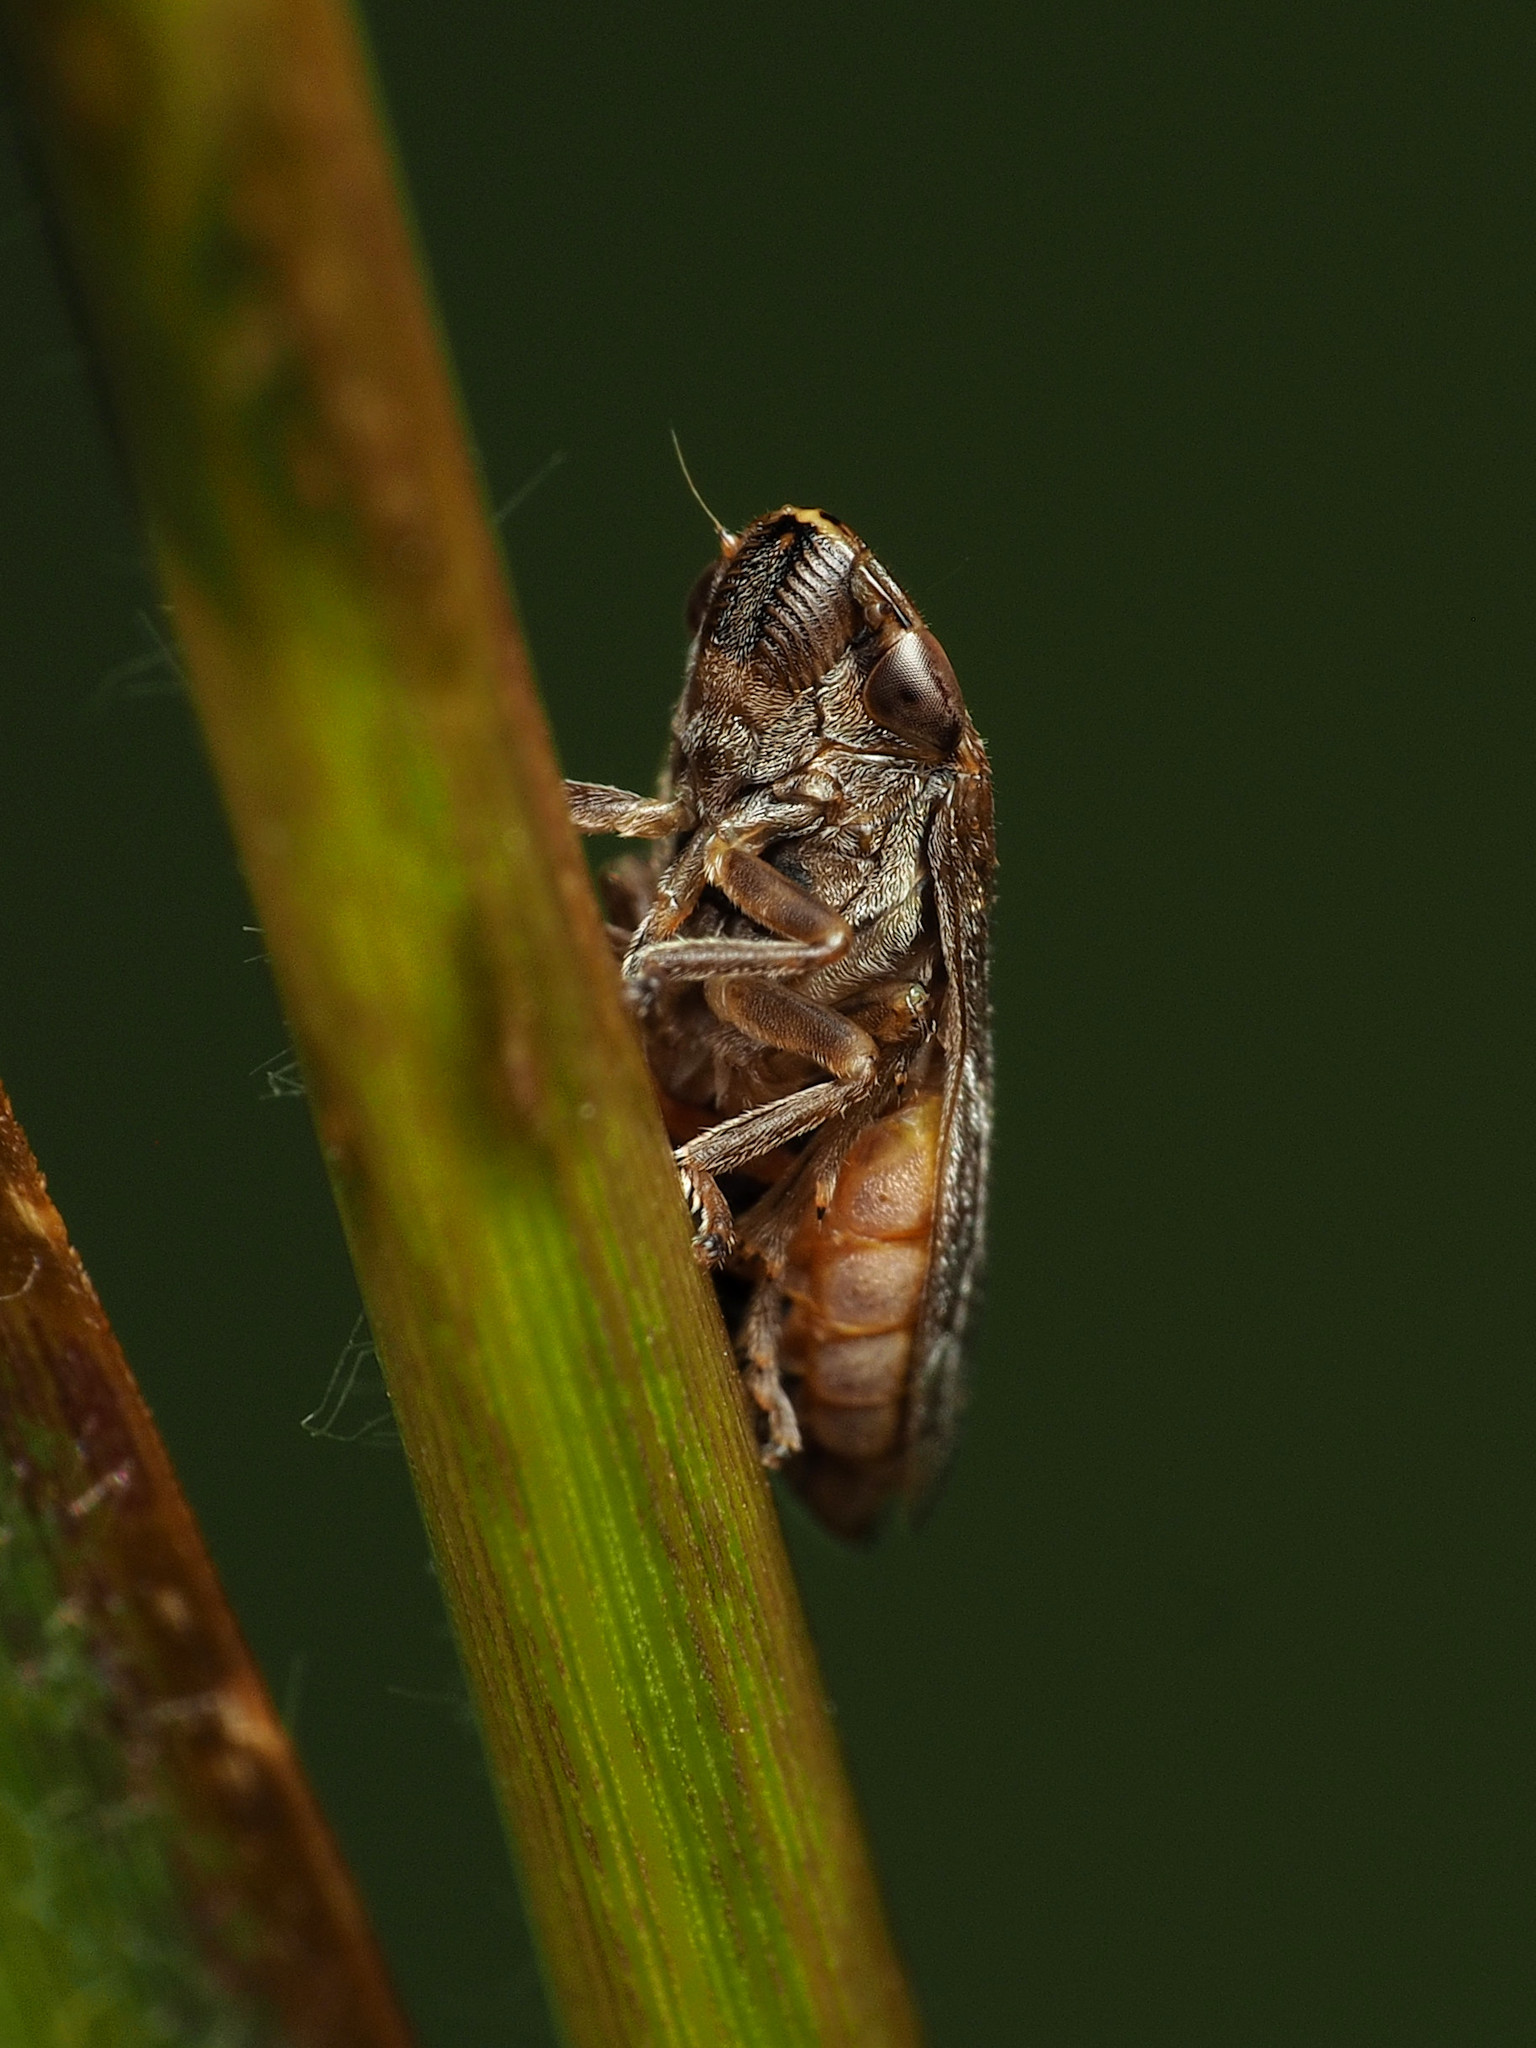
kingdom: Animalia
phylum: Arthropoda
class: Insecta
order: Hemiptera
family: Aphrophoridae
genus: Philaenus
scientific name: Philaenus spumarius
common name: Meadow spittlebug
